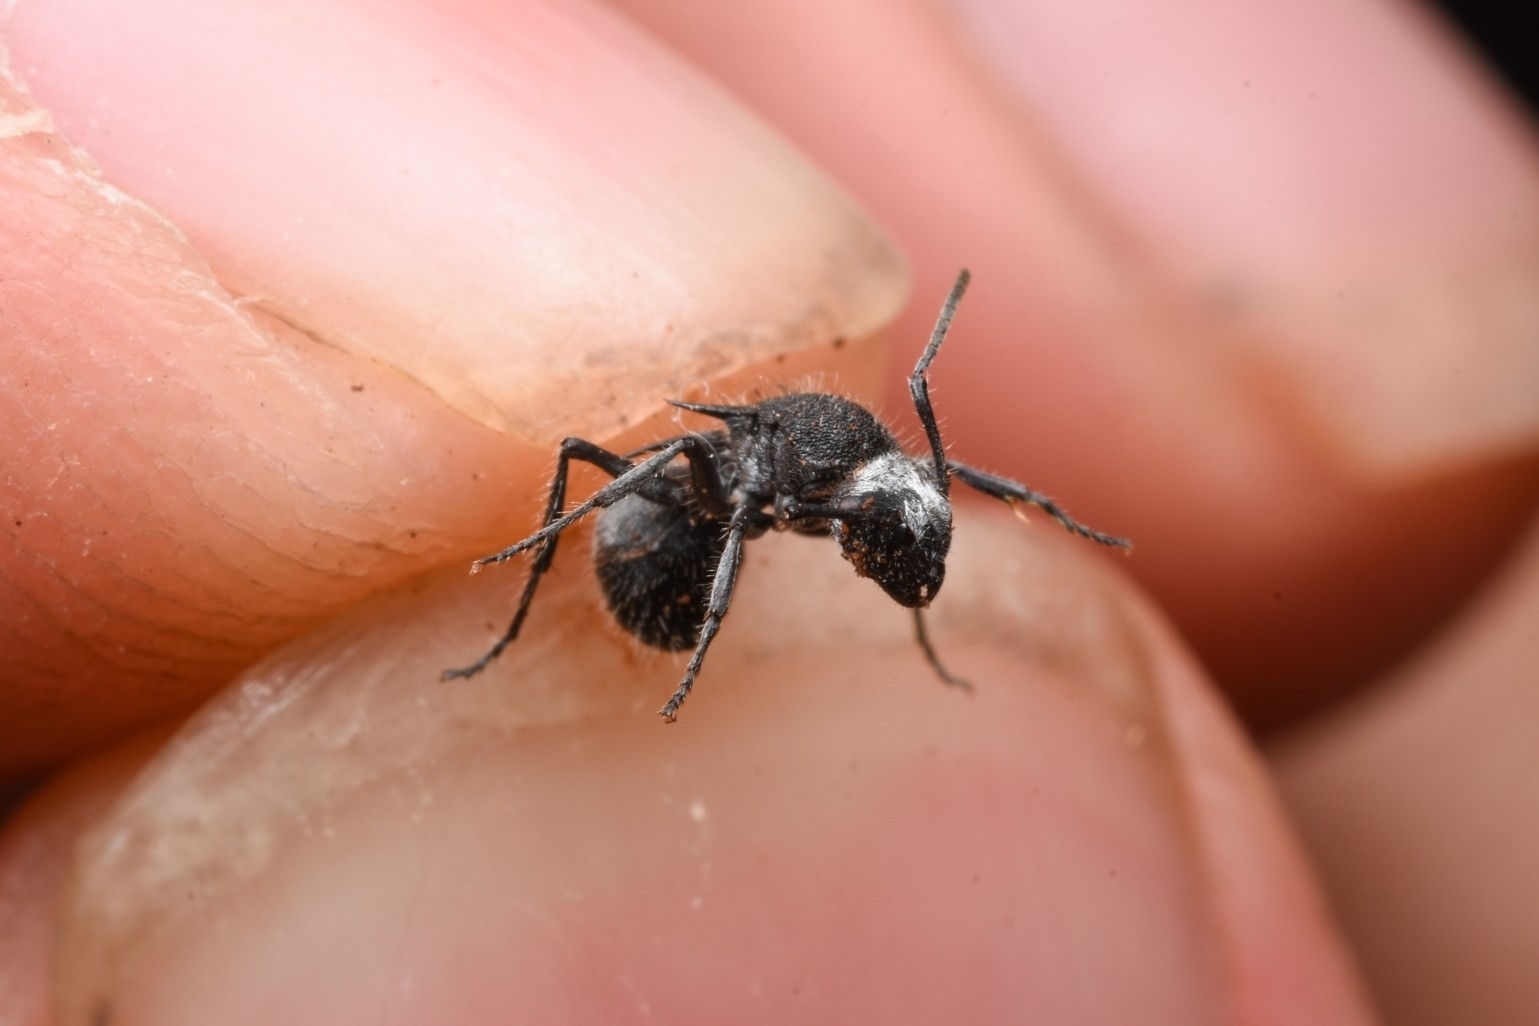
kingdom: Animalia
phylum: Arthropoda
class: Insecta
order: Hymenoptera
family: Formicidae
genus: Polyrhachis
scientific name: Polyrhachis senilis
